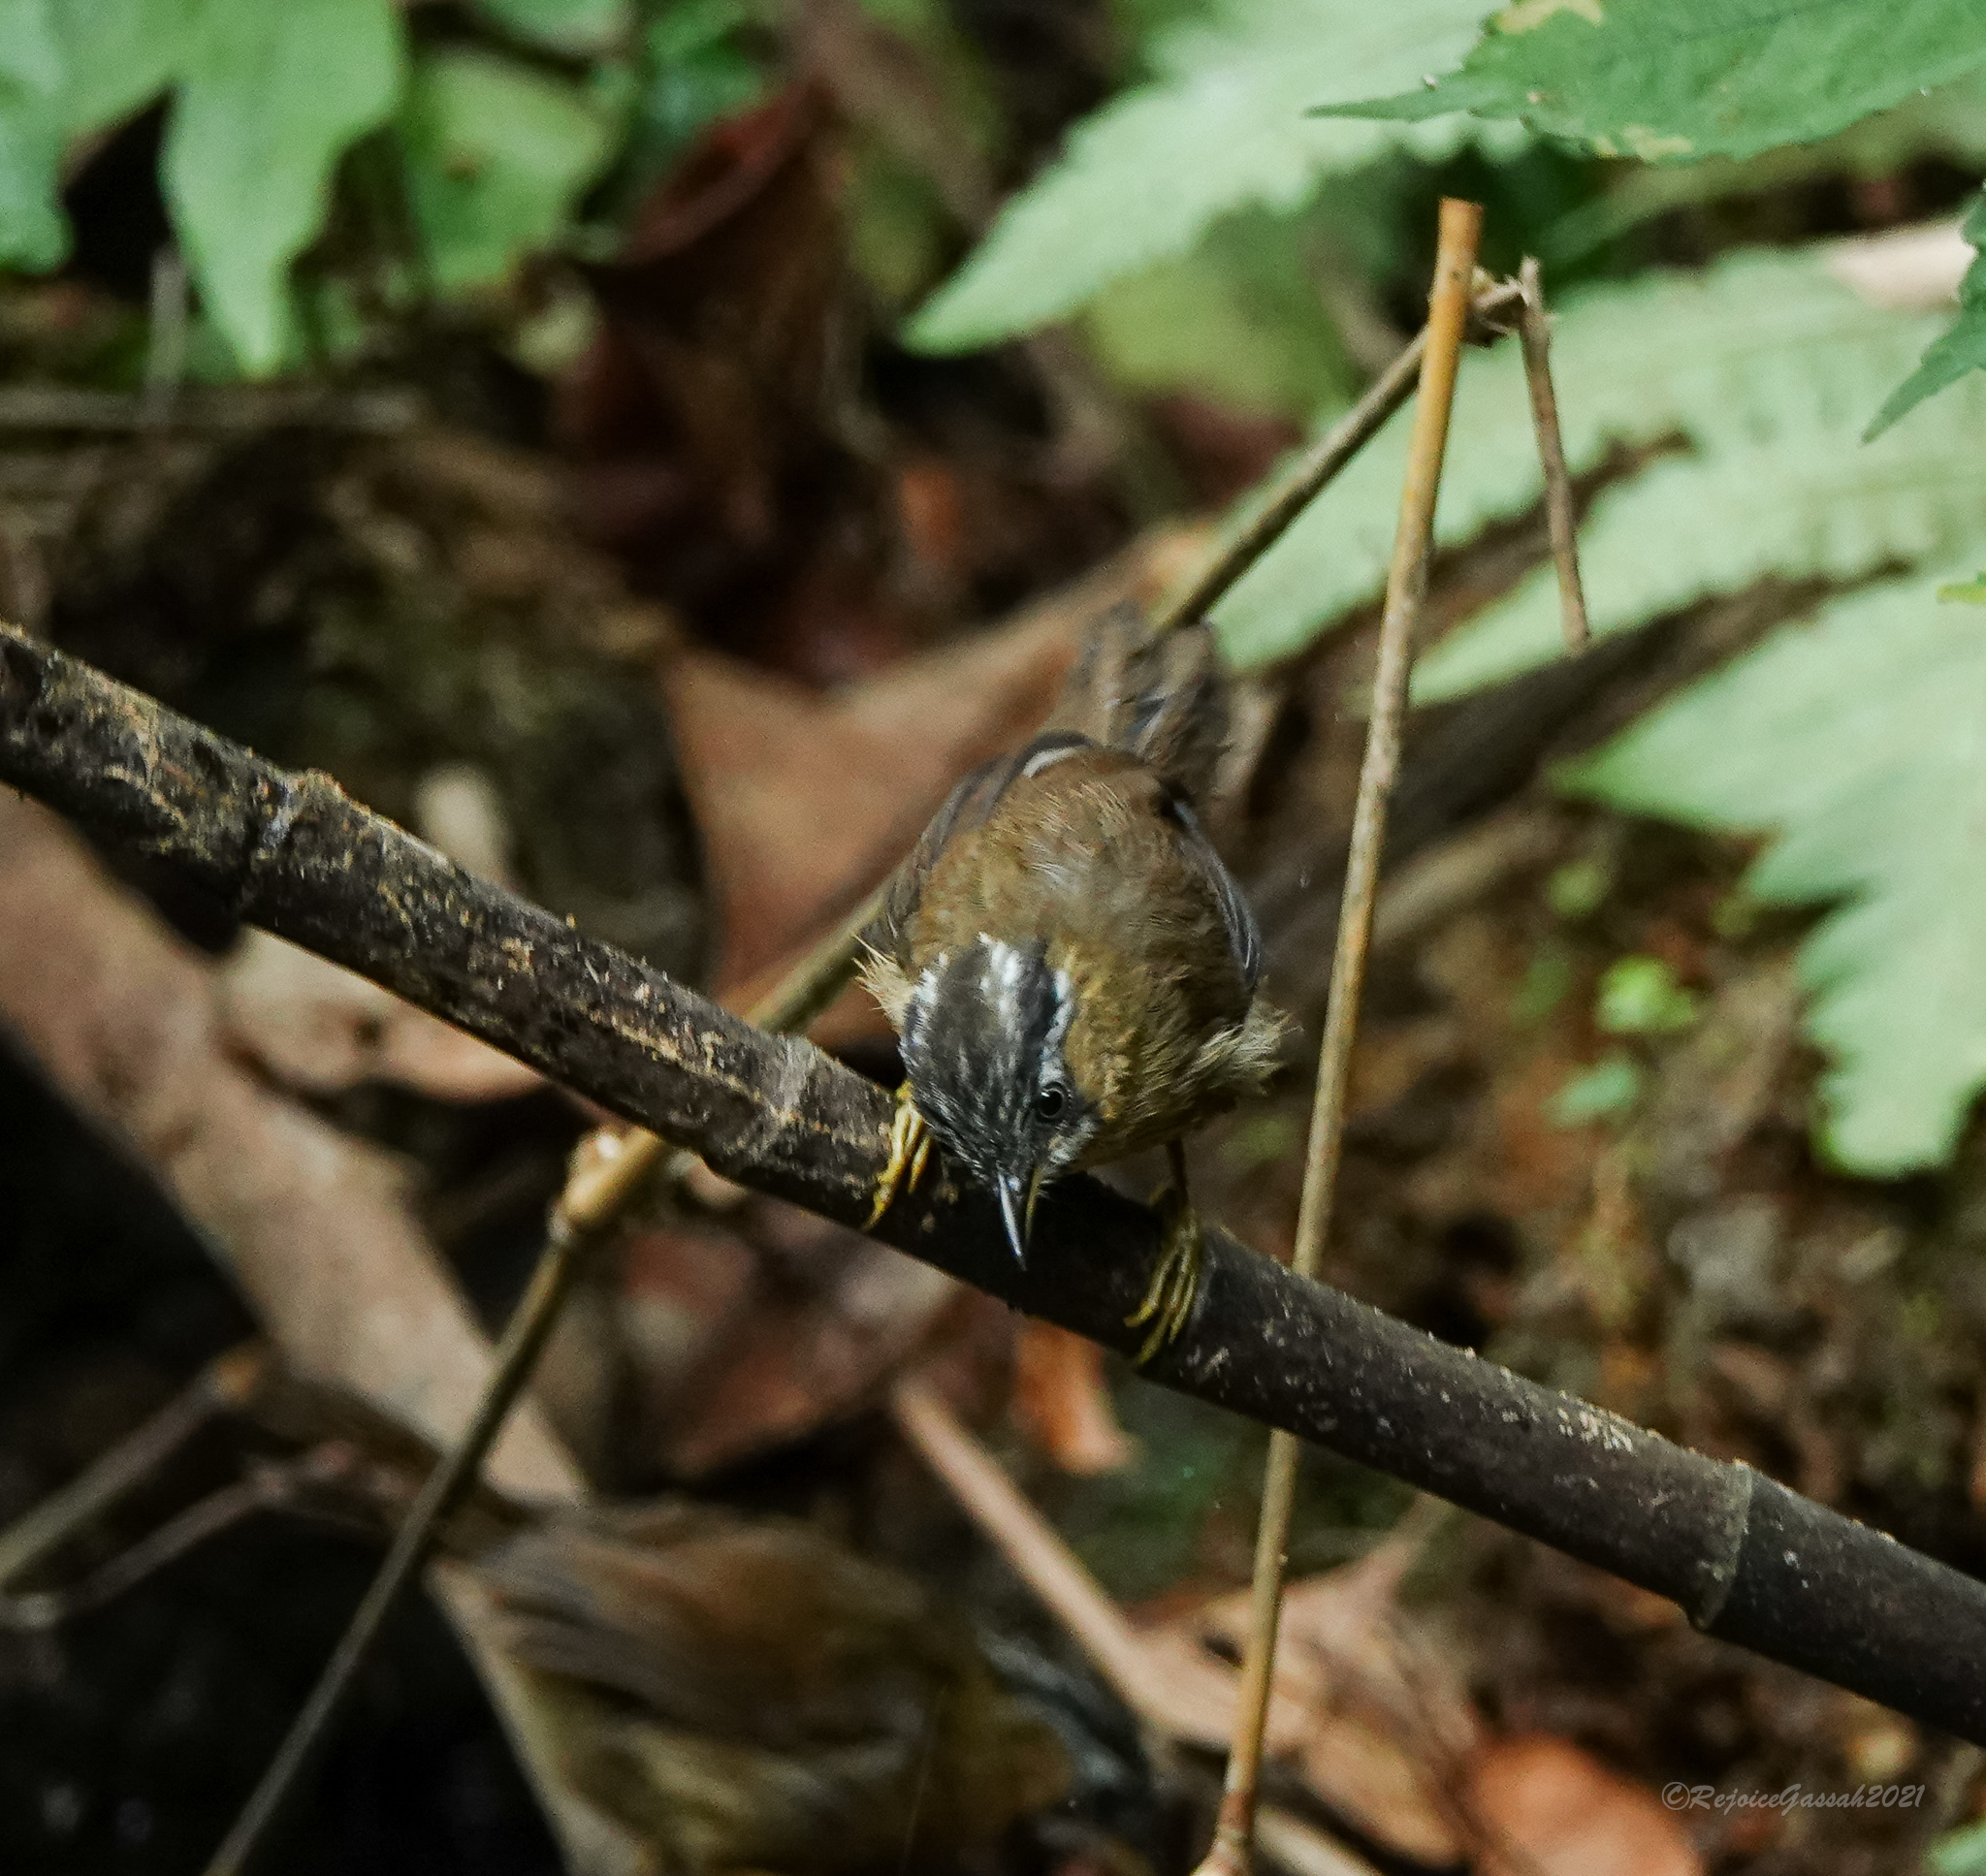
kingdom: Animalia
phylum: Chordata
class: Aves
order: Passeriformes
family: Timaliidae
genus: Stachyris
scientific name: Stachyris nigriceps
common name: Grey-throated babbler
